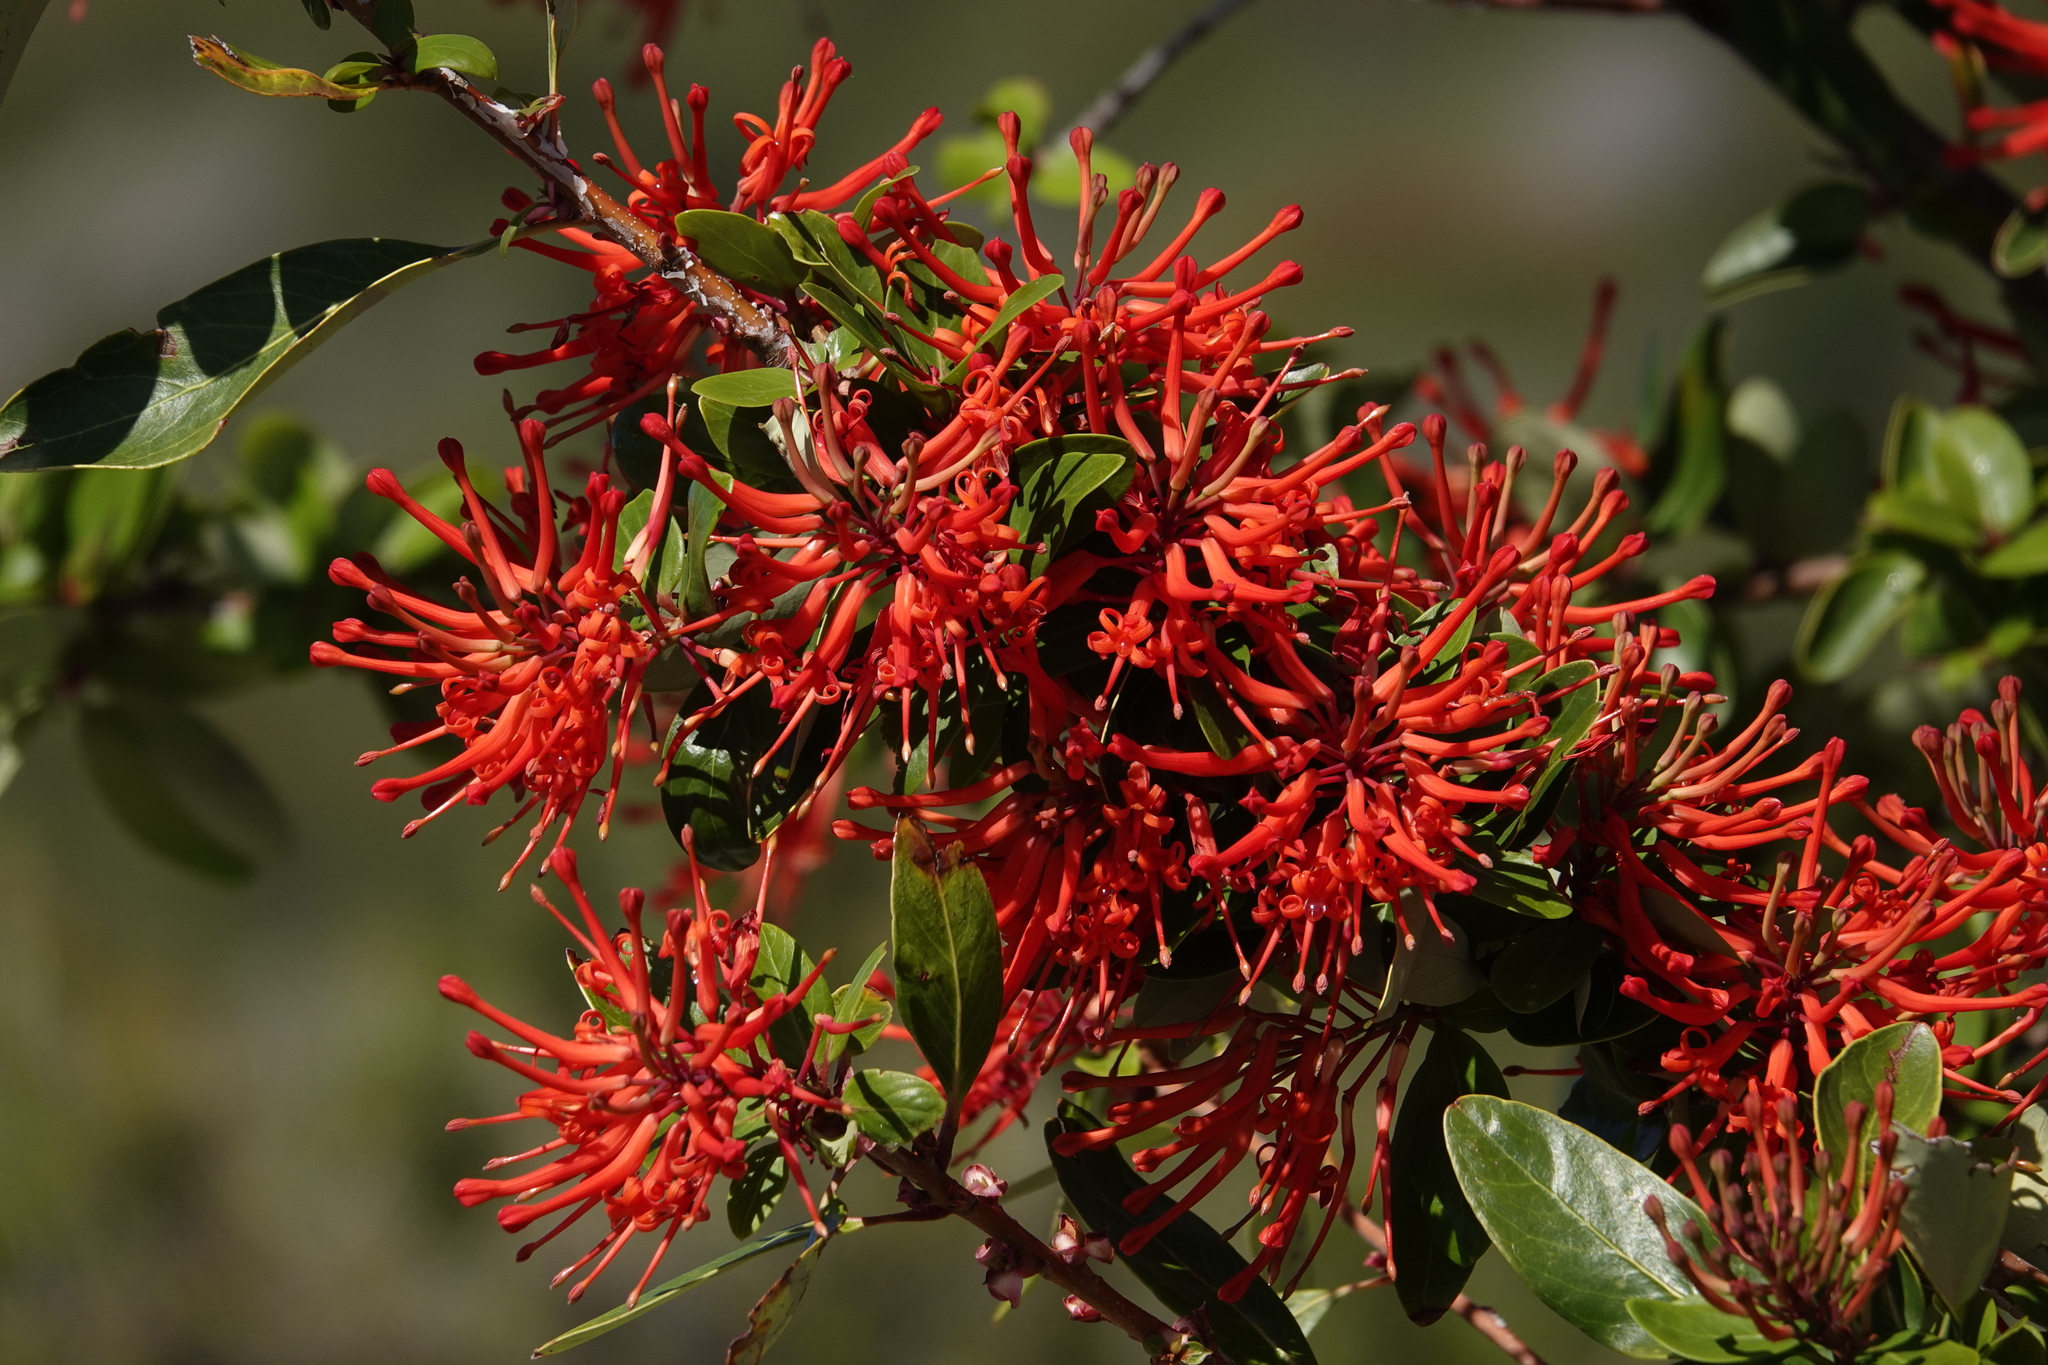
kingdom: Plantae
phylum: Tracheophyta
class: Magnoliopsida
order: Proteales
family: Proteaceae
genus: Embothrium
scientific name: Embothrium coccineum
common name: Chilean firebush
